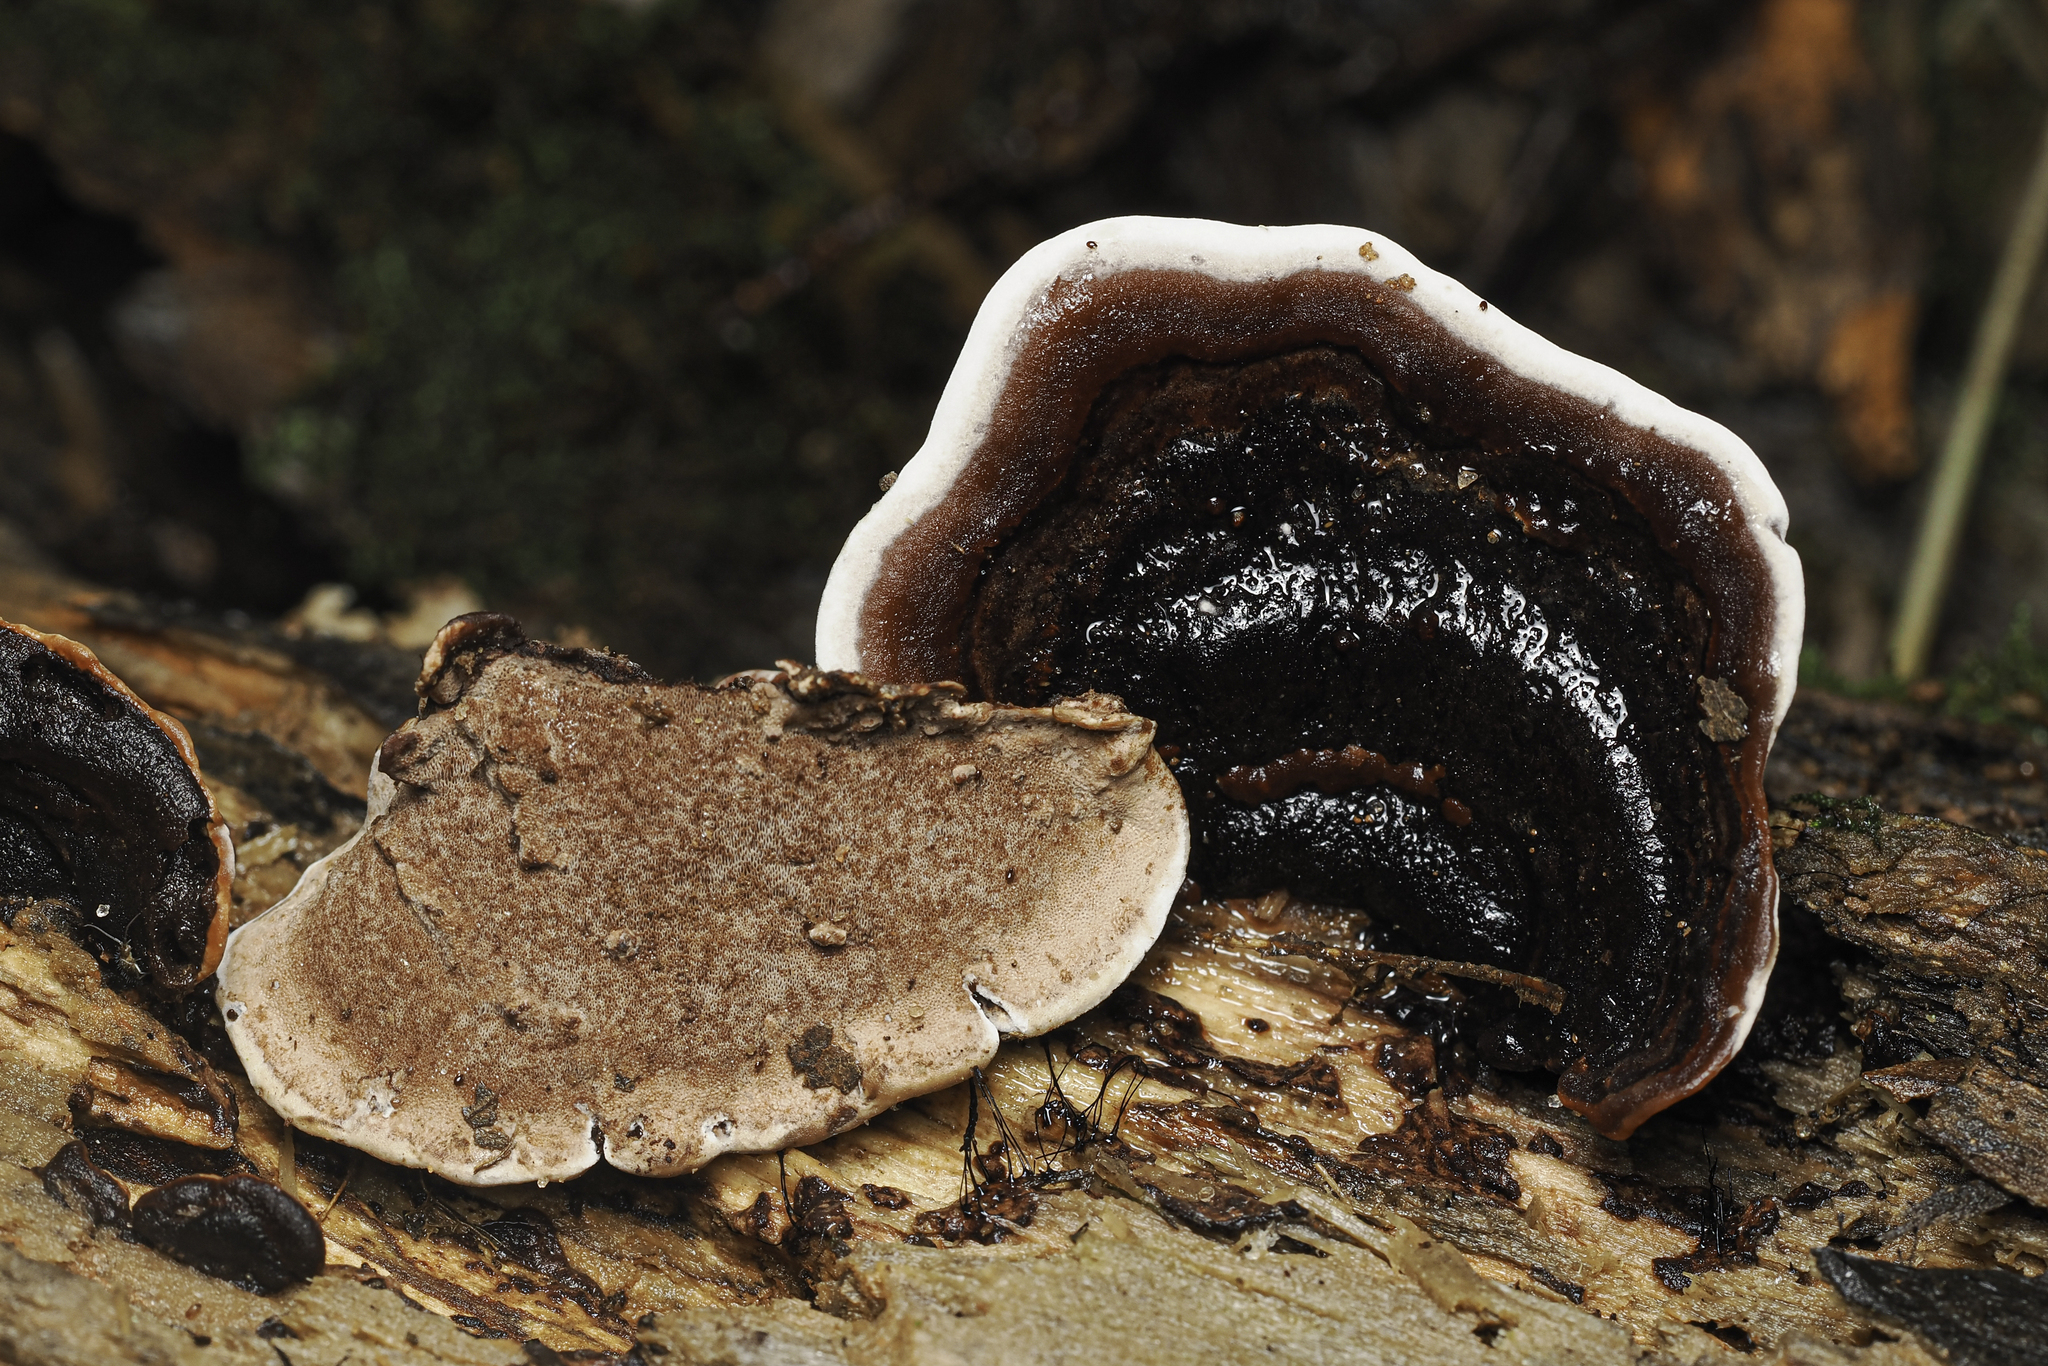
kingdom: Fungi
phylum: Basidiomycota
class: Agaricomycetes
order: Polyporales
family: Steccherinaceae
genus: Nigroporus
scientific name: Nigroporus vinosus
